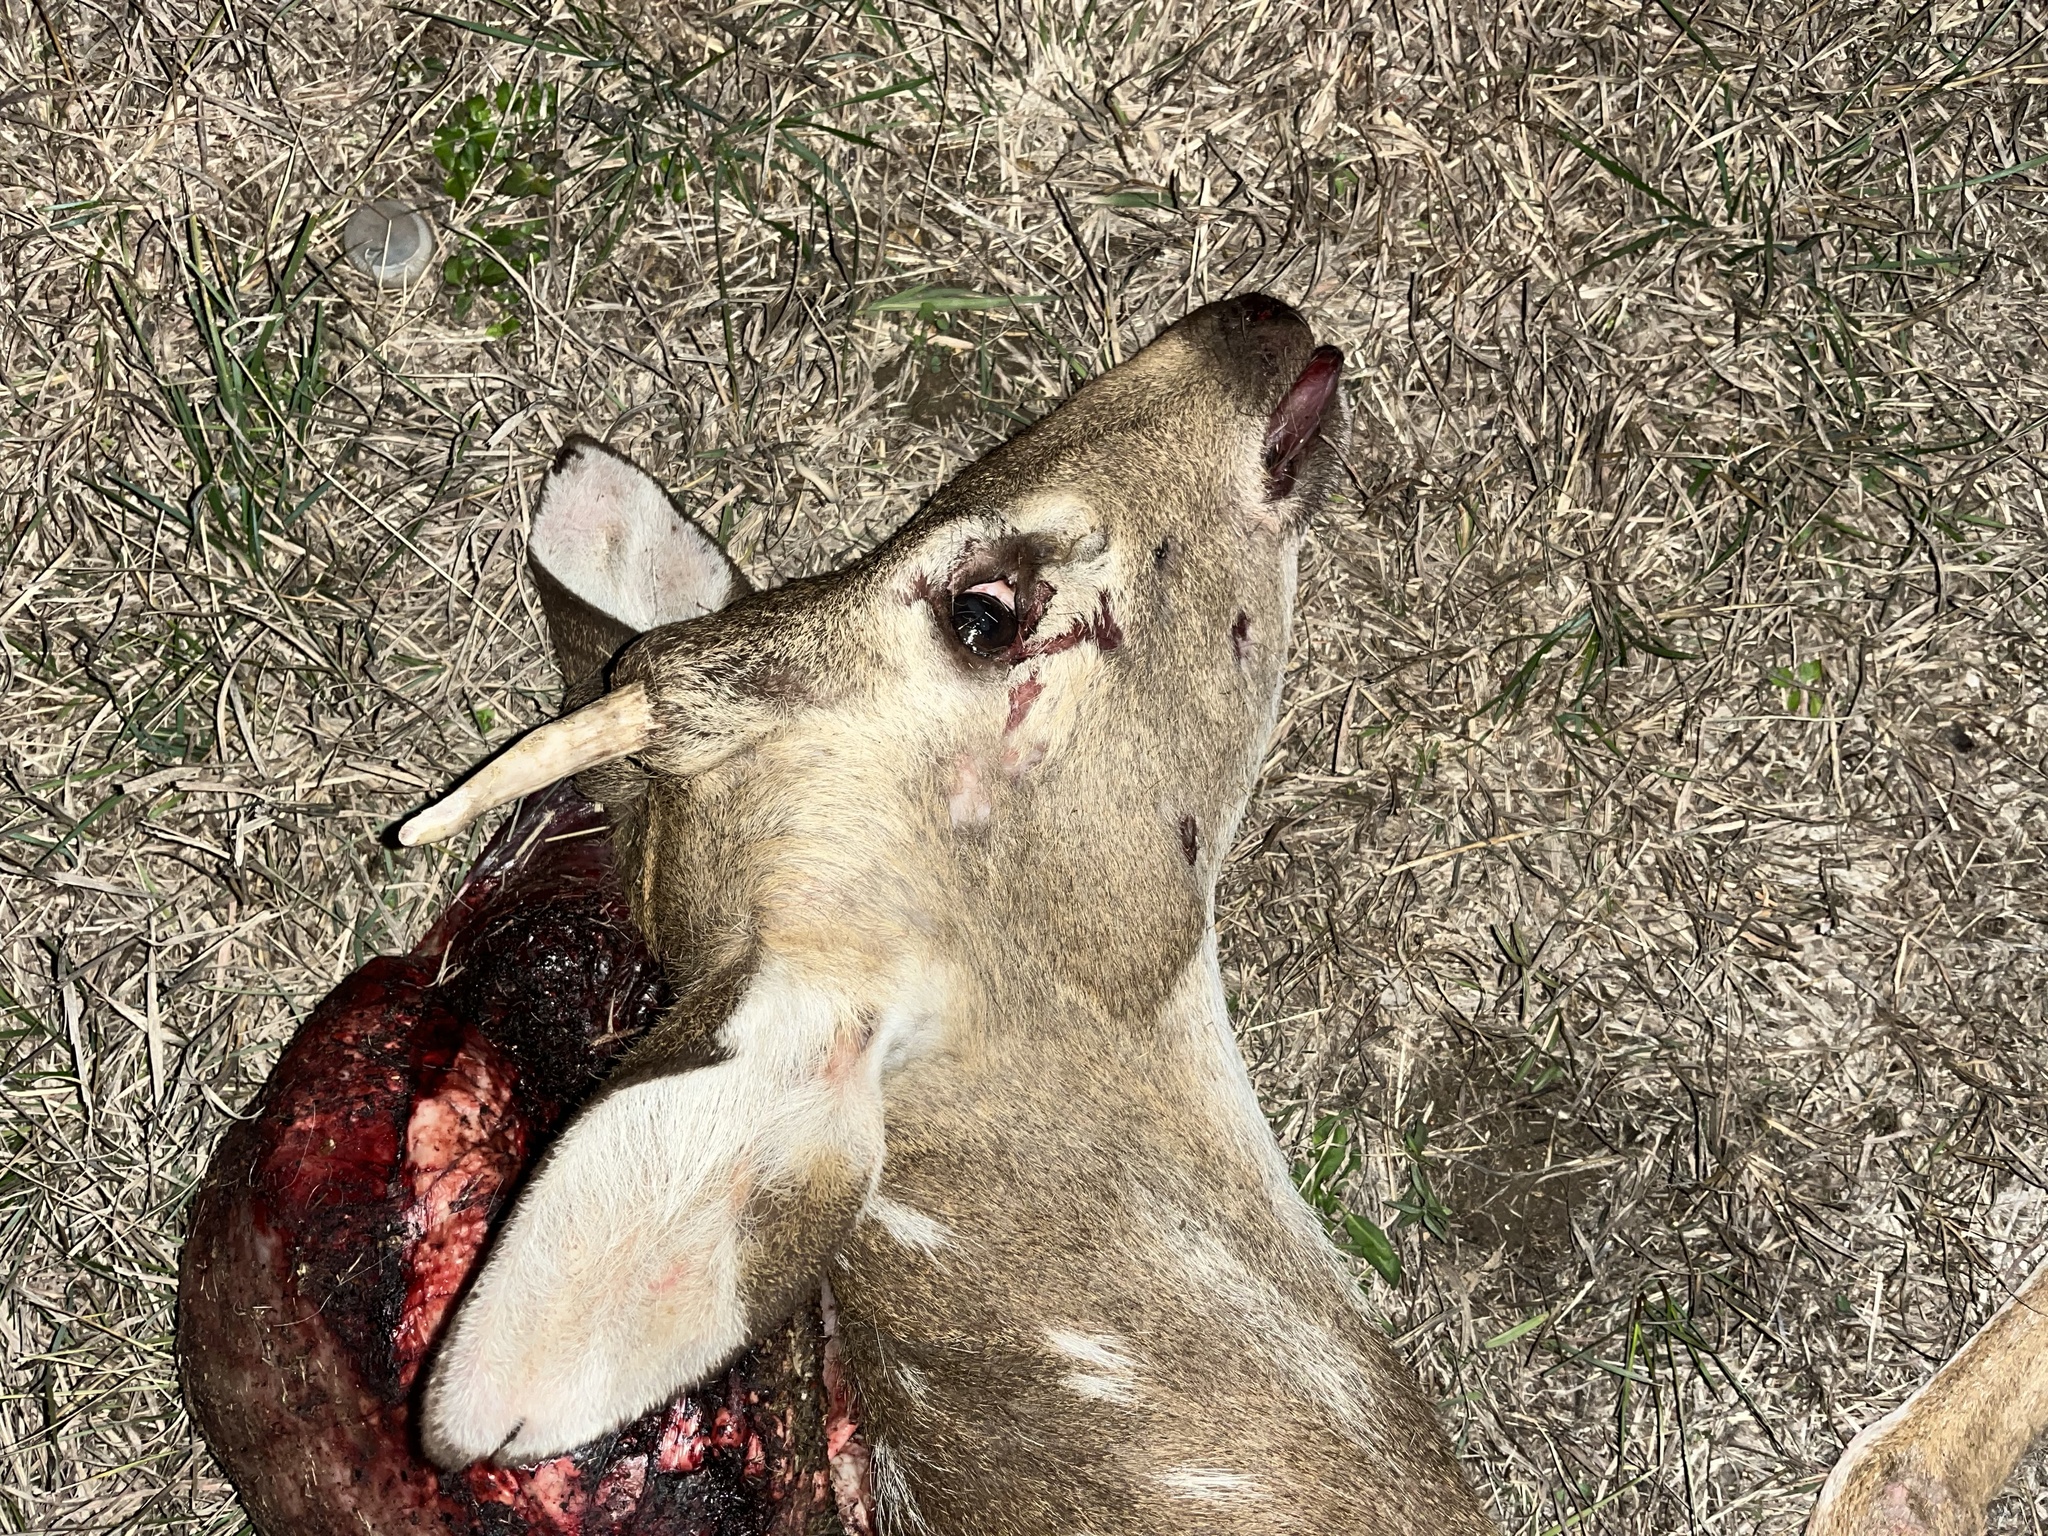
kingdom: Animalia
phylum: Chordata
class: Mammalia
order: Artiodactyla
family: Cervidae
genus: Axis
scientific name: Axis axis
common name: Chital
